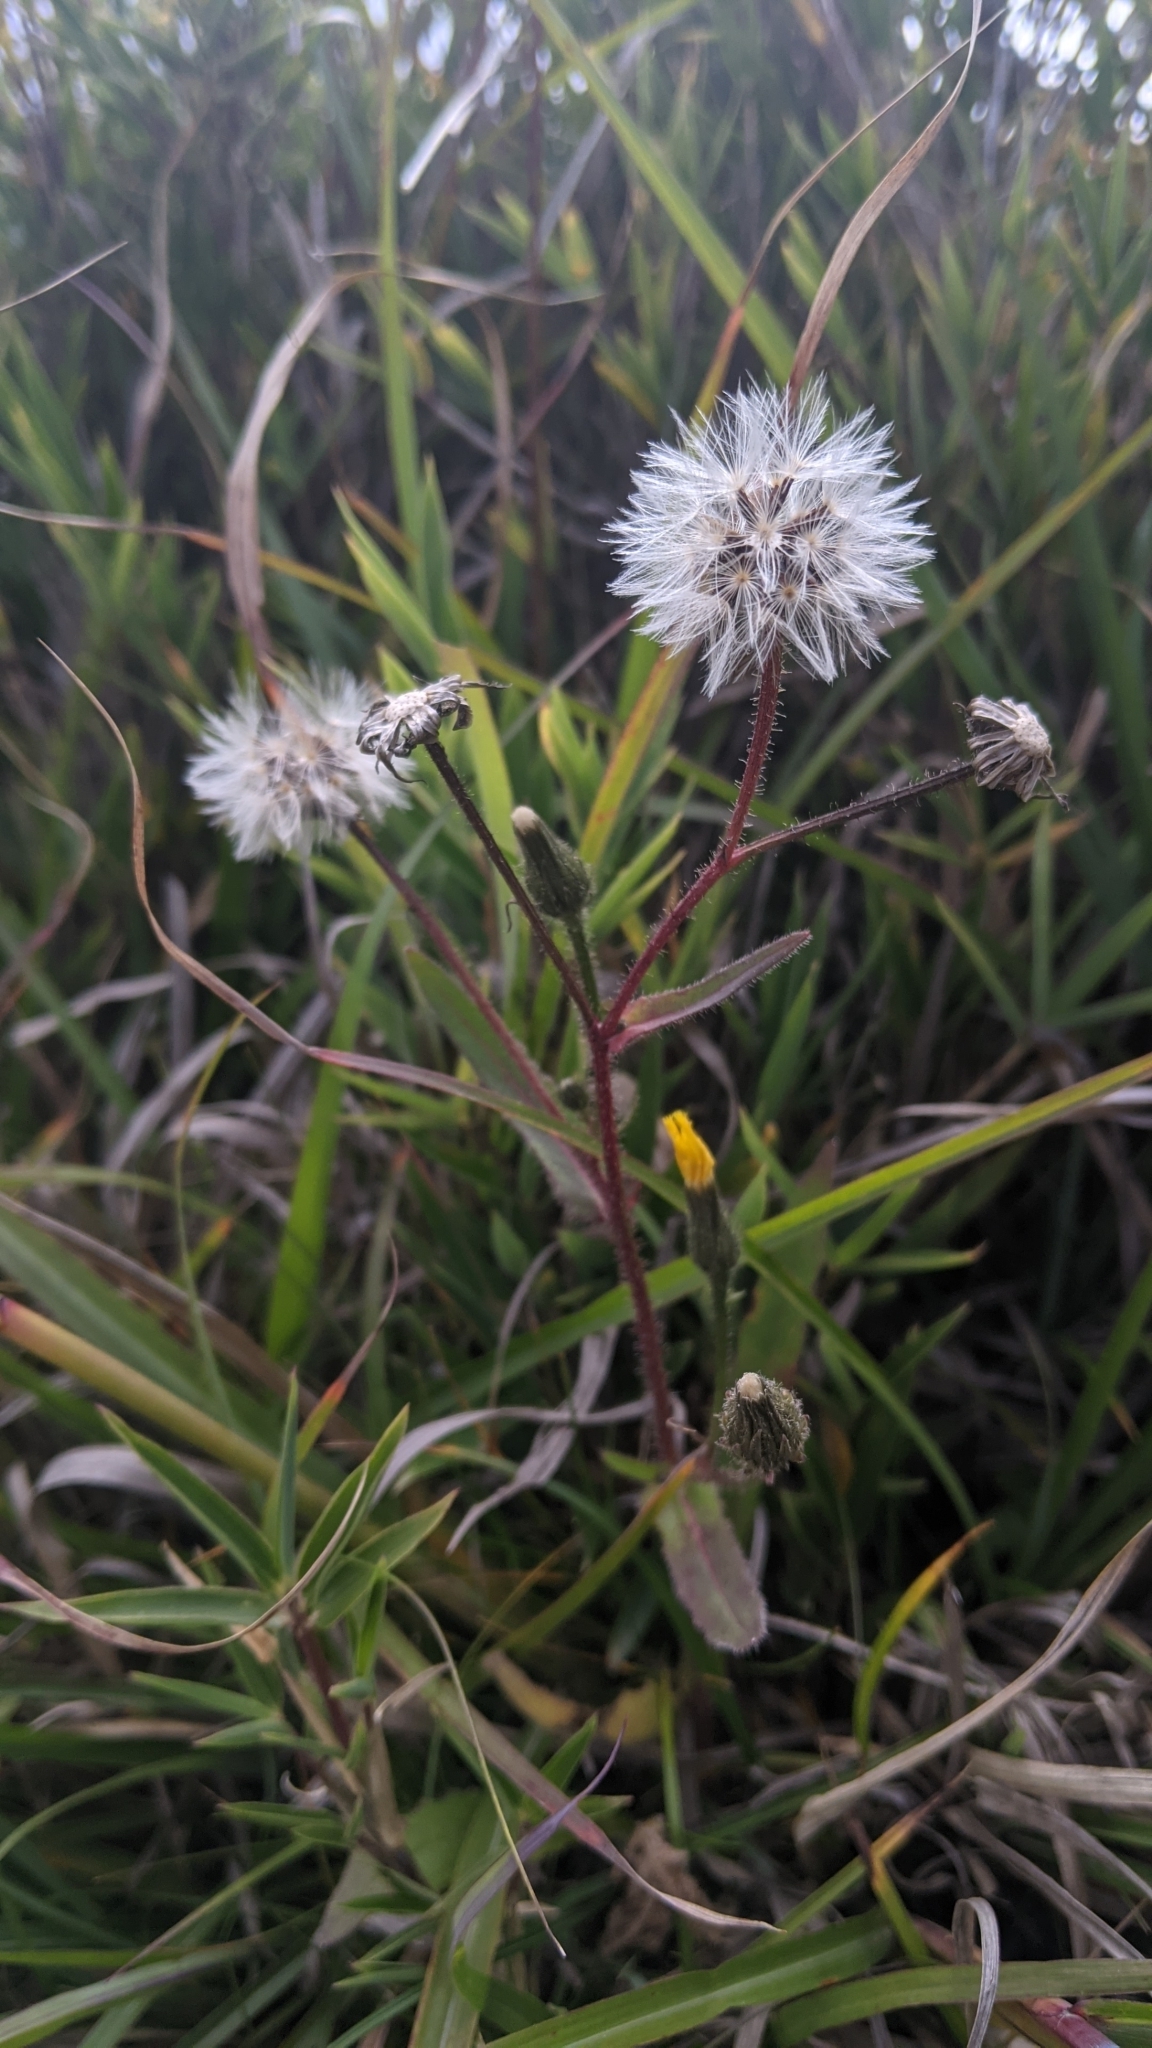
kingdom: Plantae
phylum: Tracheophyta
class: Magnoliopsida
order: Asterales
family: Asteraceae
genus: Picris
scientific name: Picris angustifolia
